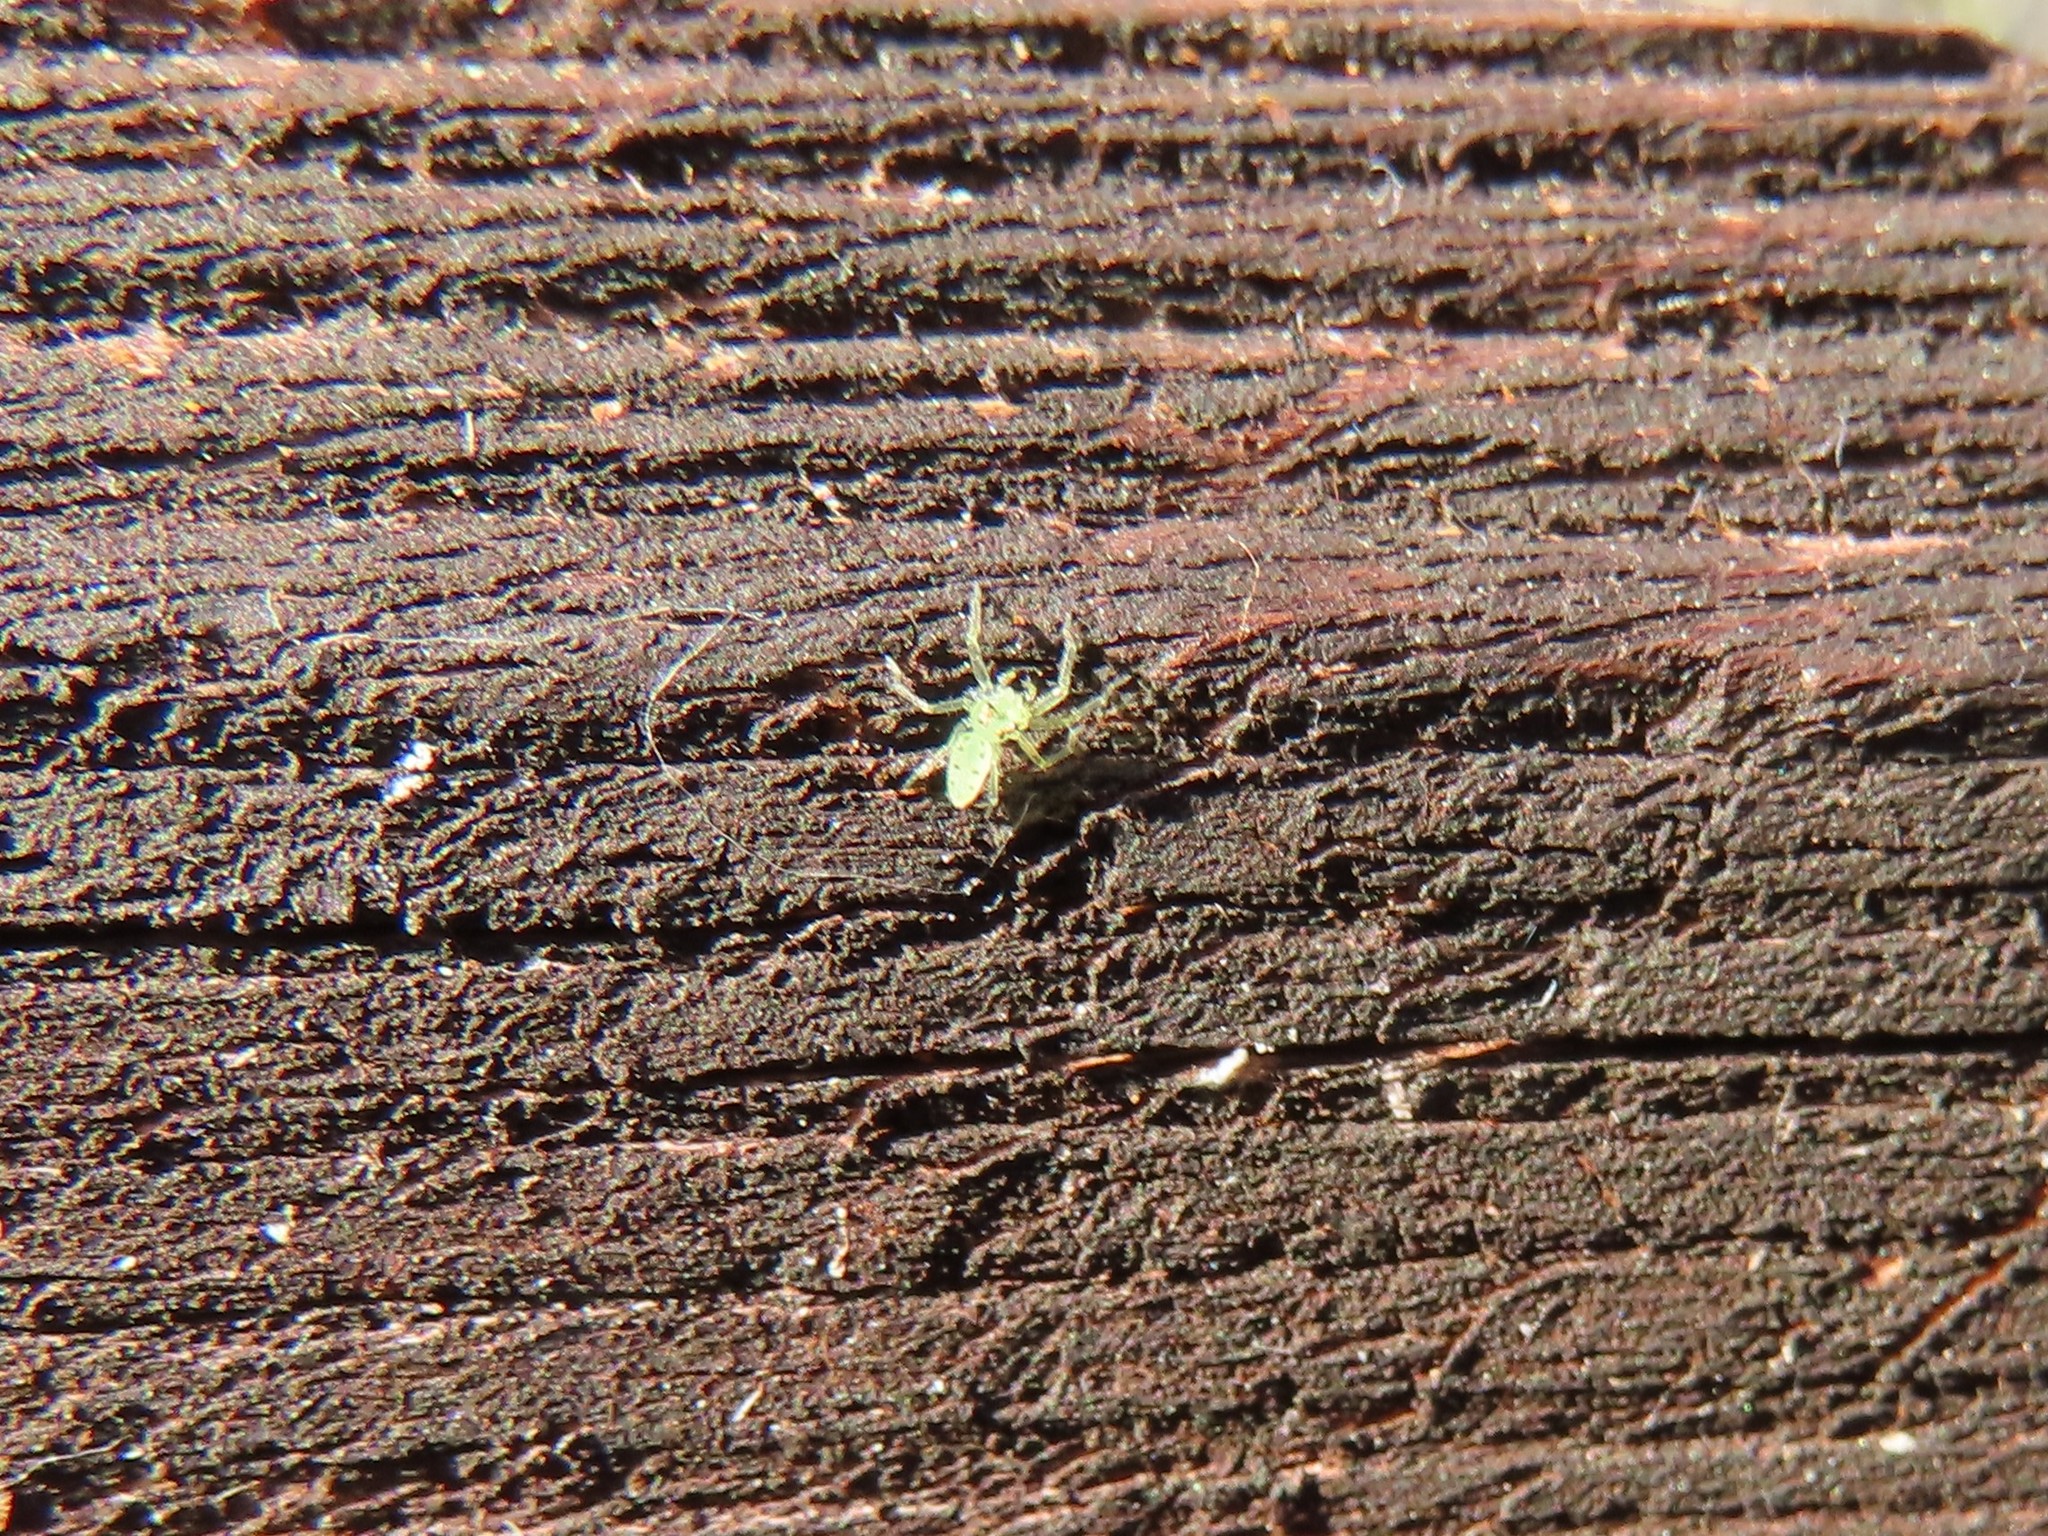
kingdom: Animalia
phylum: Arthropoda
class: Arachnida
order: Araneae
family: Salticidae
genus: Lyssomanes
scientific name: Lyssomanes viridis
